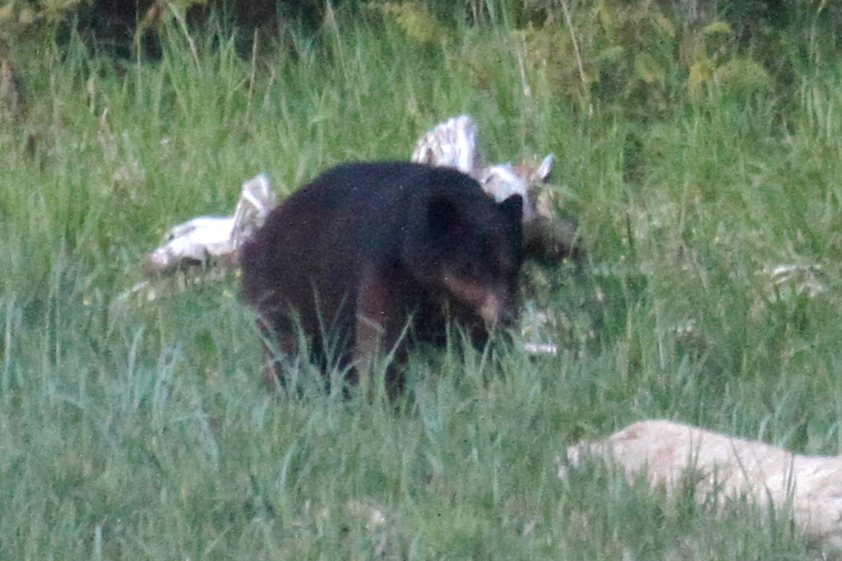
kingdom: Animalia
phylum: Chordata
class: Mammalia
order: Carnivora
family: Ursidae
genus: Ursus
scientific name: Ursus americanus
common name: American black bear
